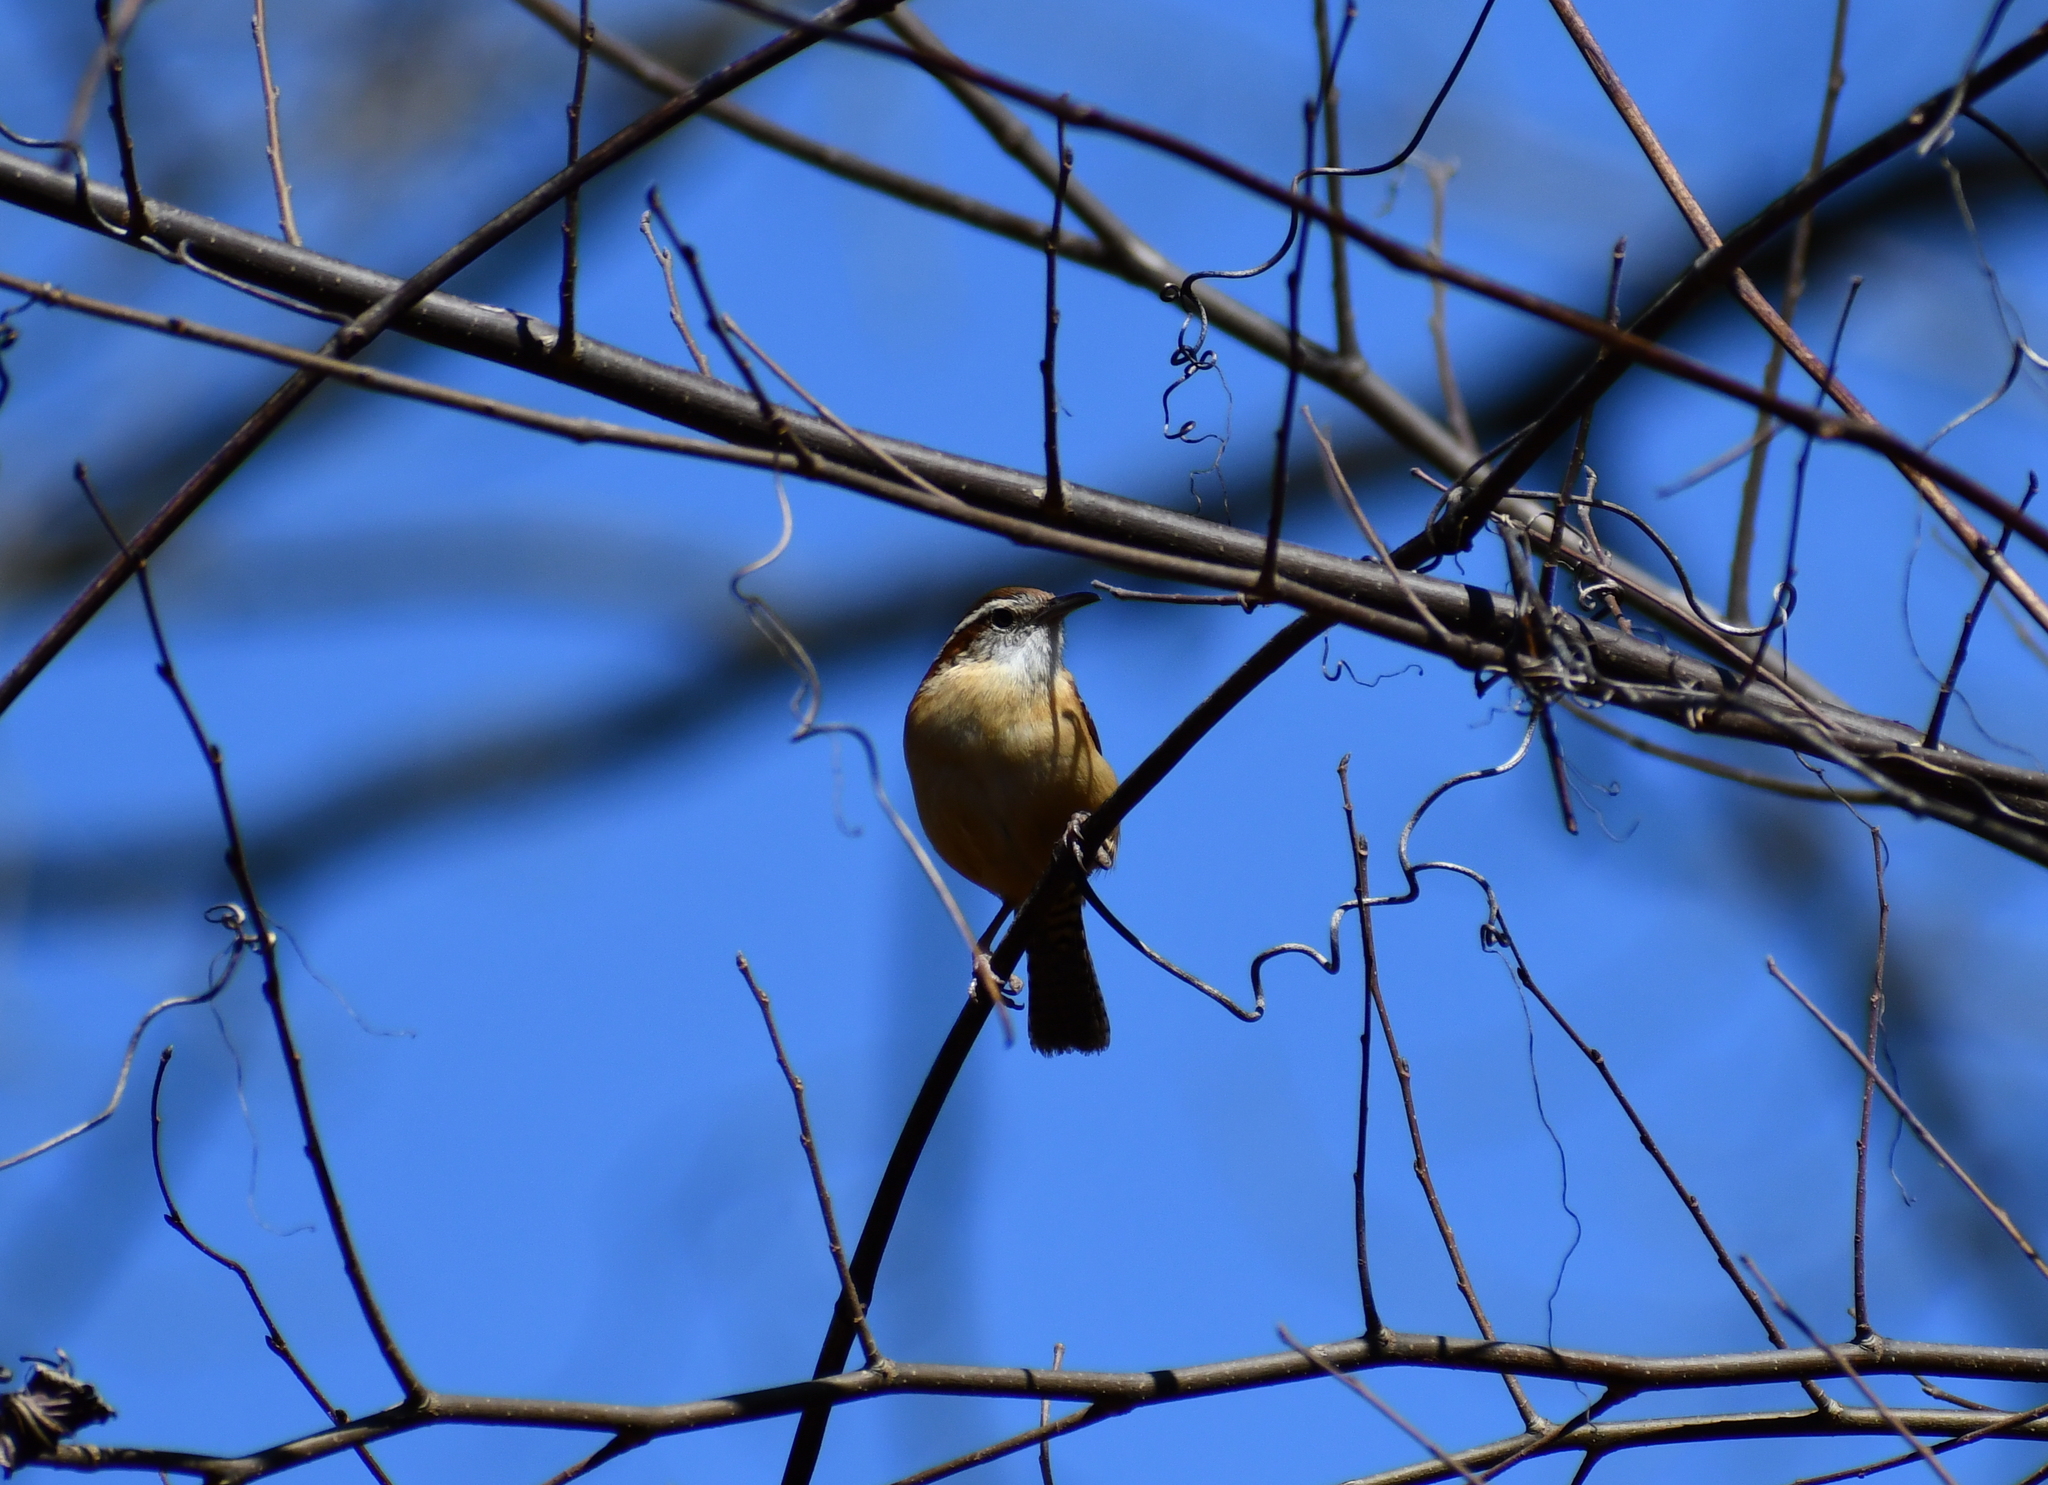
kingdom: Animalia
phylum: Chordata
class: Aves
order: Passeriformes
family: Troglodytidae
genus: Thryothorus
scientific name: Thryothorus ludovicianus
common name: Carolina wren
